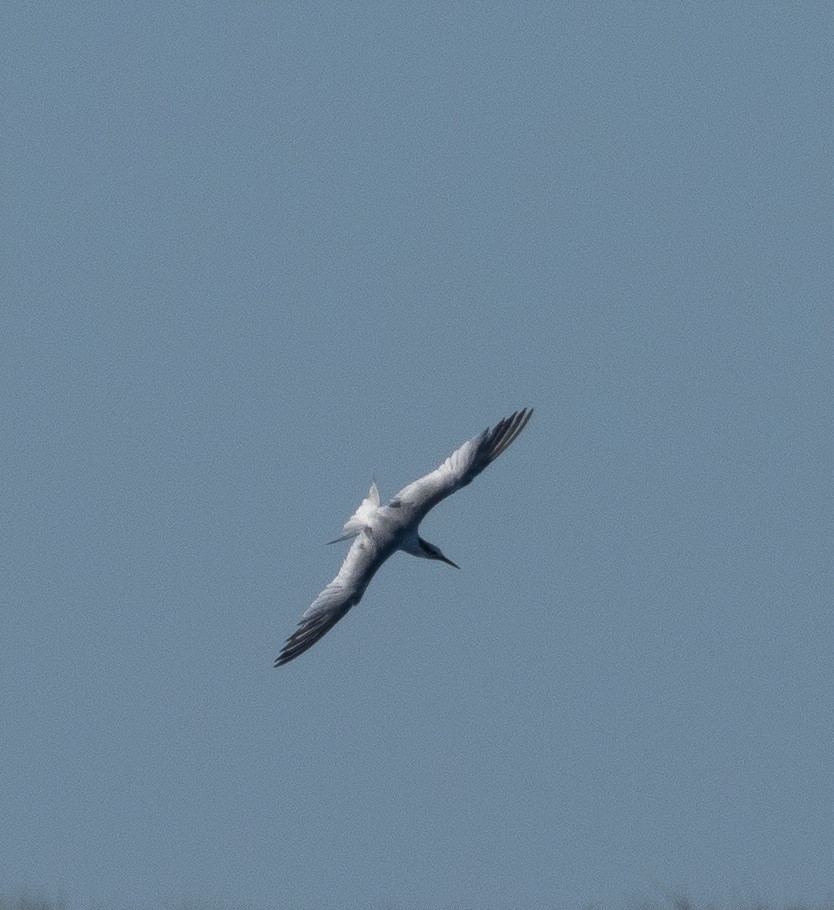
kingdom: Animalia
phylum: Chordata
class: Aves
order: Charadriiformes
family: Laridae
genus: Thalasseus
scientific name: Thalasseus sandvicensis
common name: Sandwich tern
